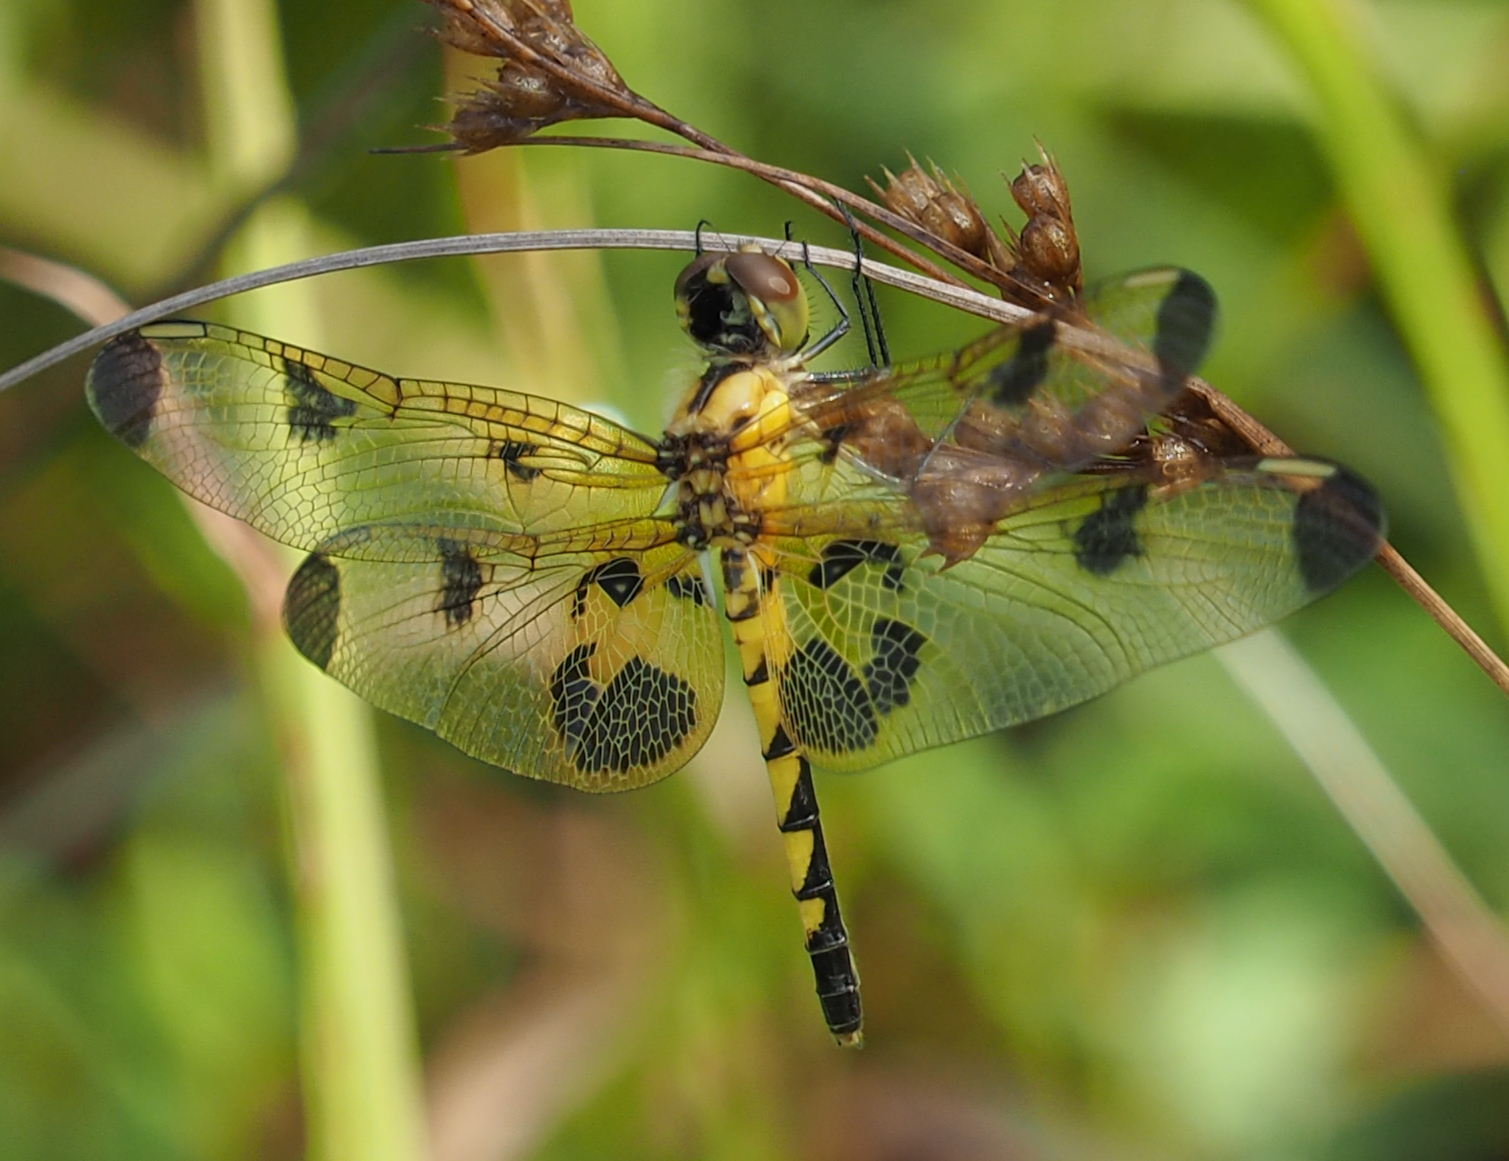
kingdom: Animalia
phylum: Arthropoda
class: Insecta
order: Odonata
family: Libellulidae
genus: Celithemis
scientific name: Celithemis elisa
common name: Calico pennant
